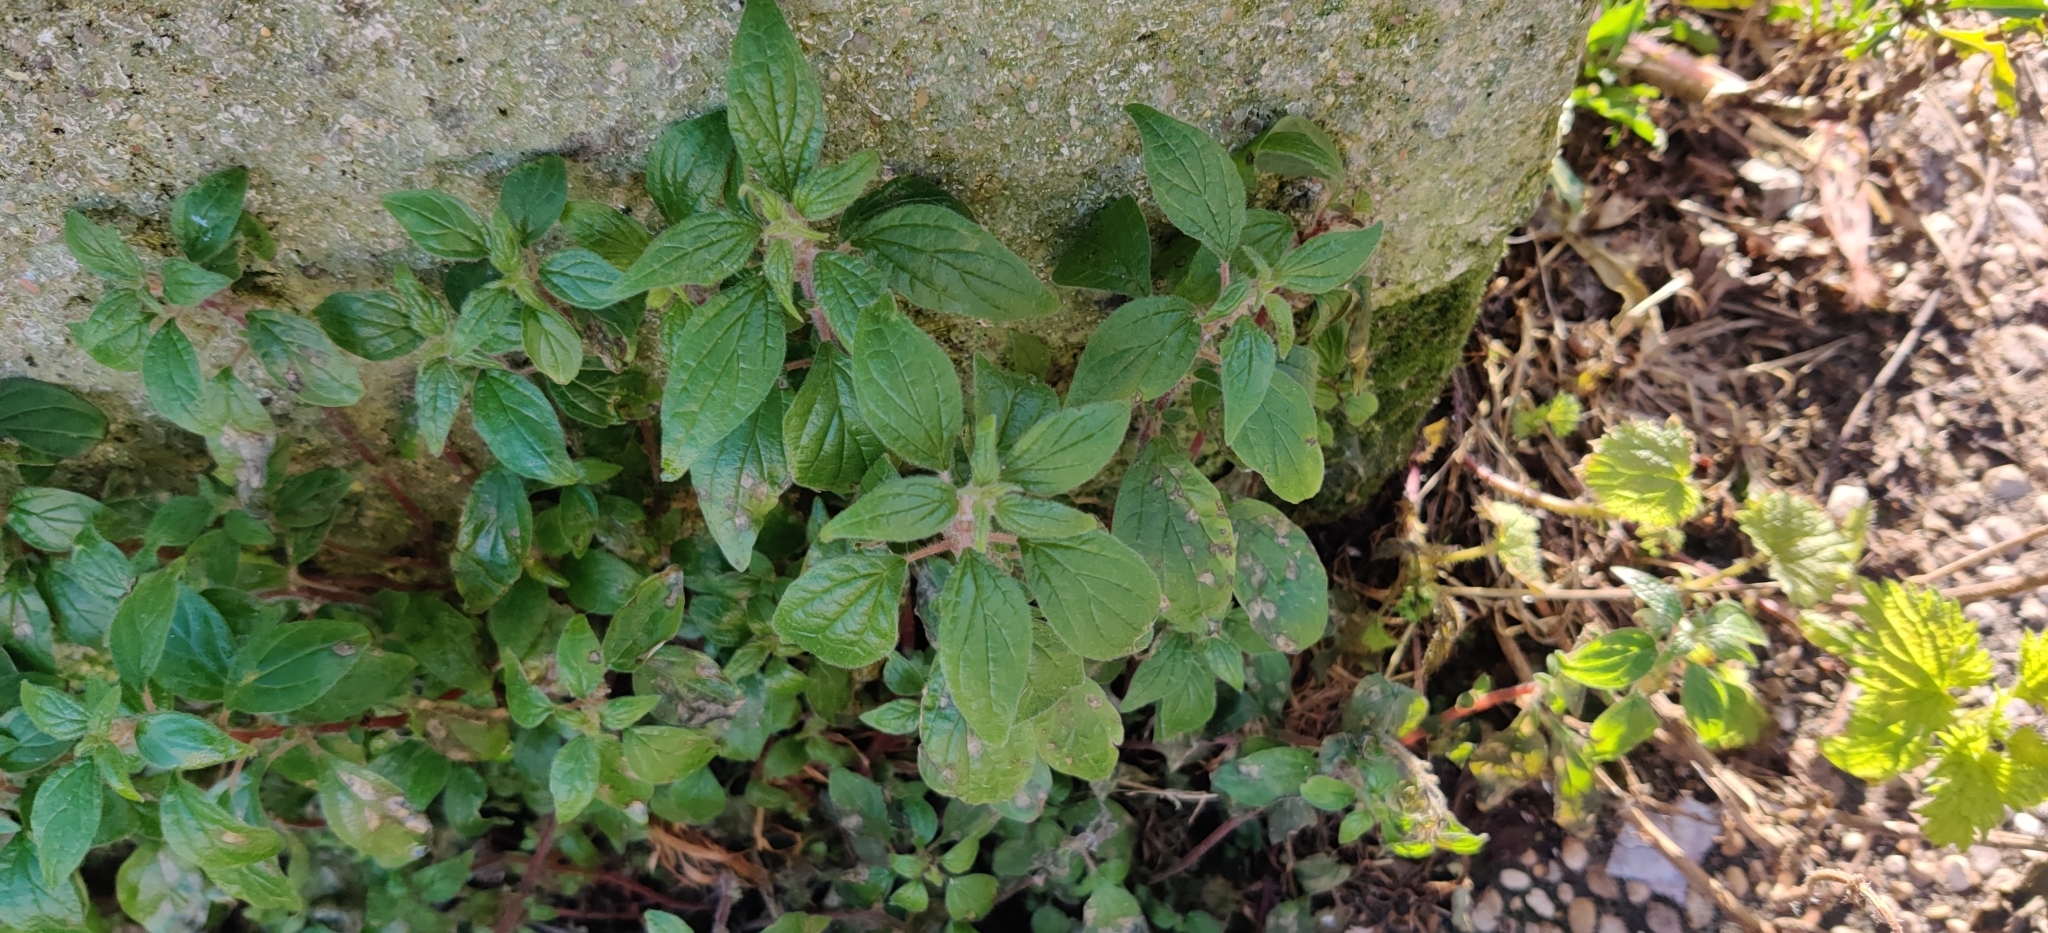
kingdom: Plantae
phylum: Tracheophyta
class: Magnoliopsida
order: Rosales
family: Urticaceae
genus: Parietaria
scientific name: Parietaria judaica
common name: Pellitory-of-the-wall
